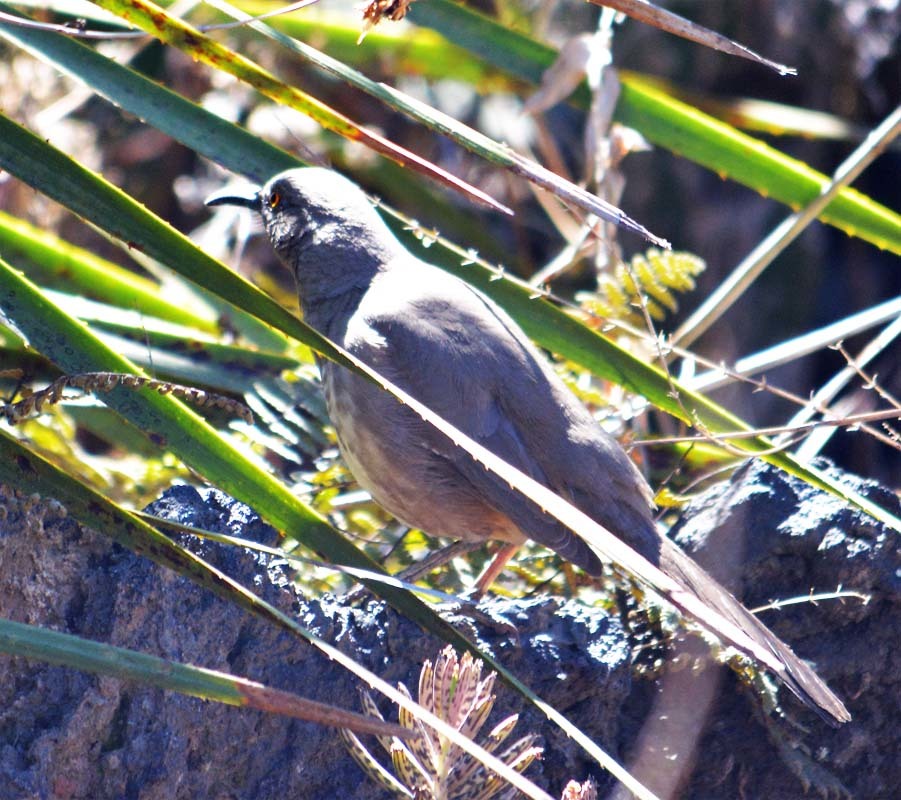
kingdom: Animalia
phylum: Chordata
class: Aves
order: Passeriformes
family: Mimidae
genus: Toxostoma
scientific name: Toxostoma curvirostre
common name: Curve-billed thrasher
